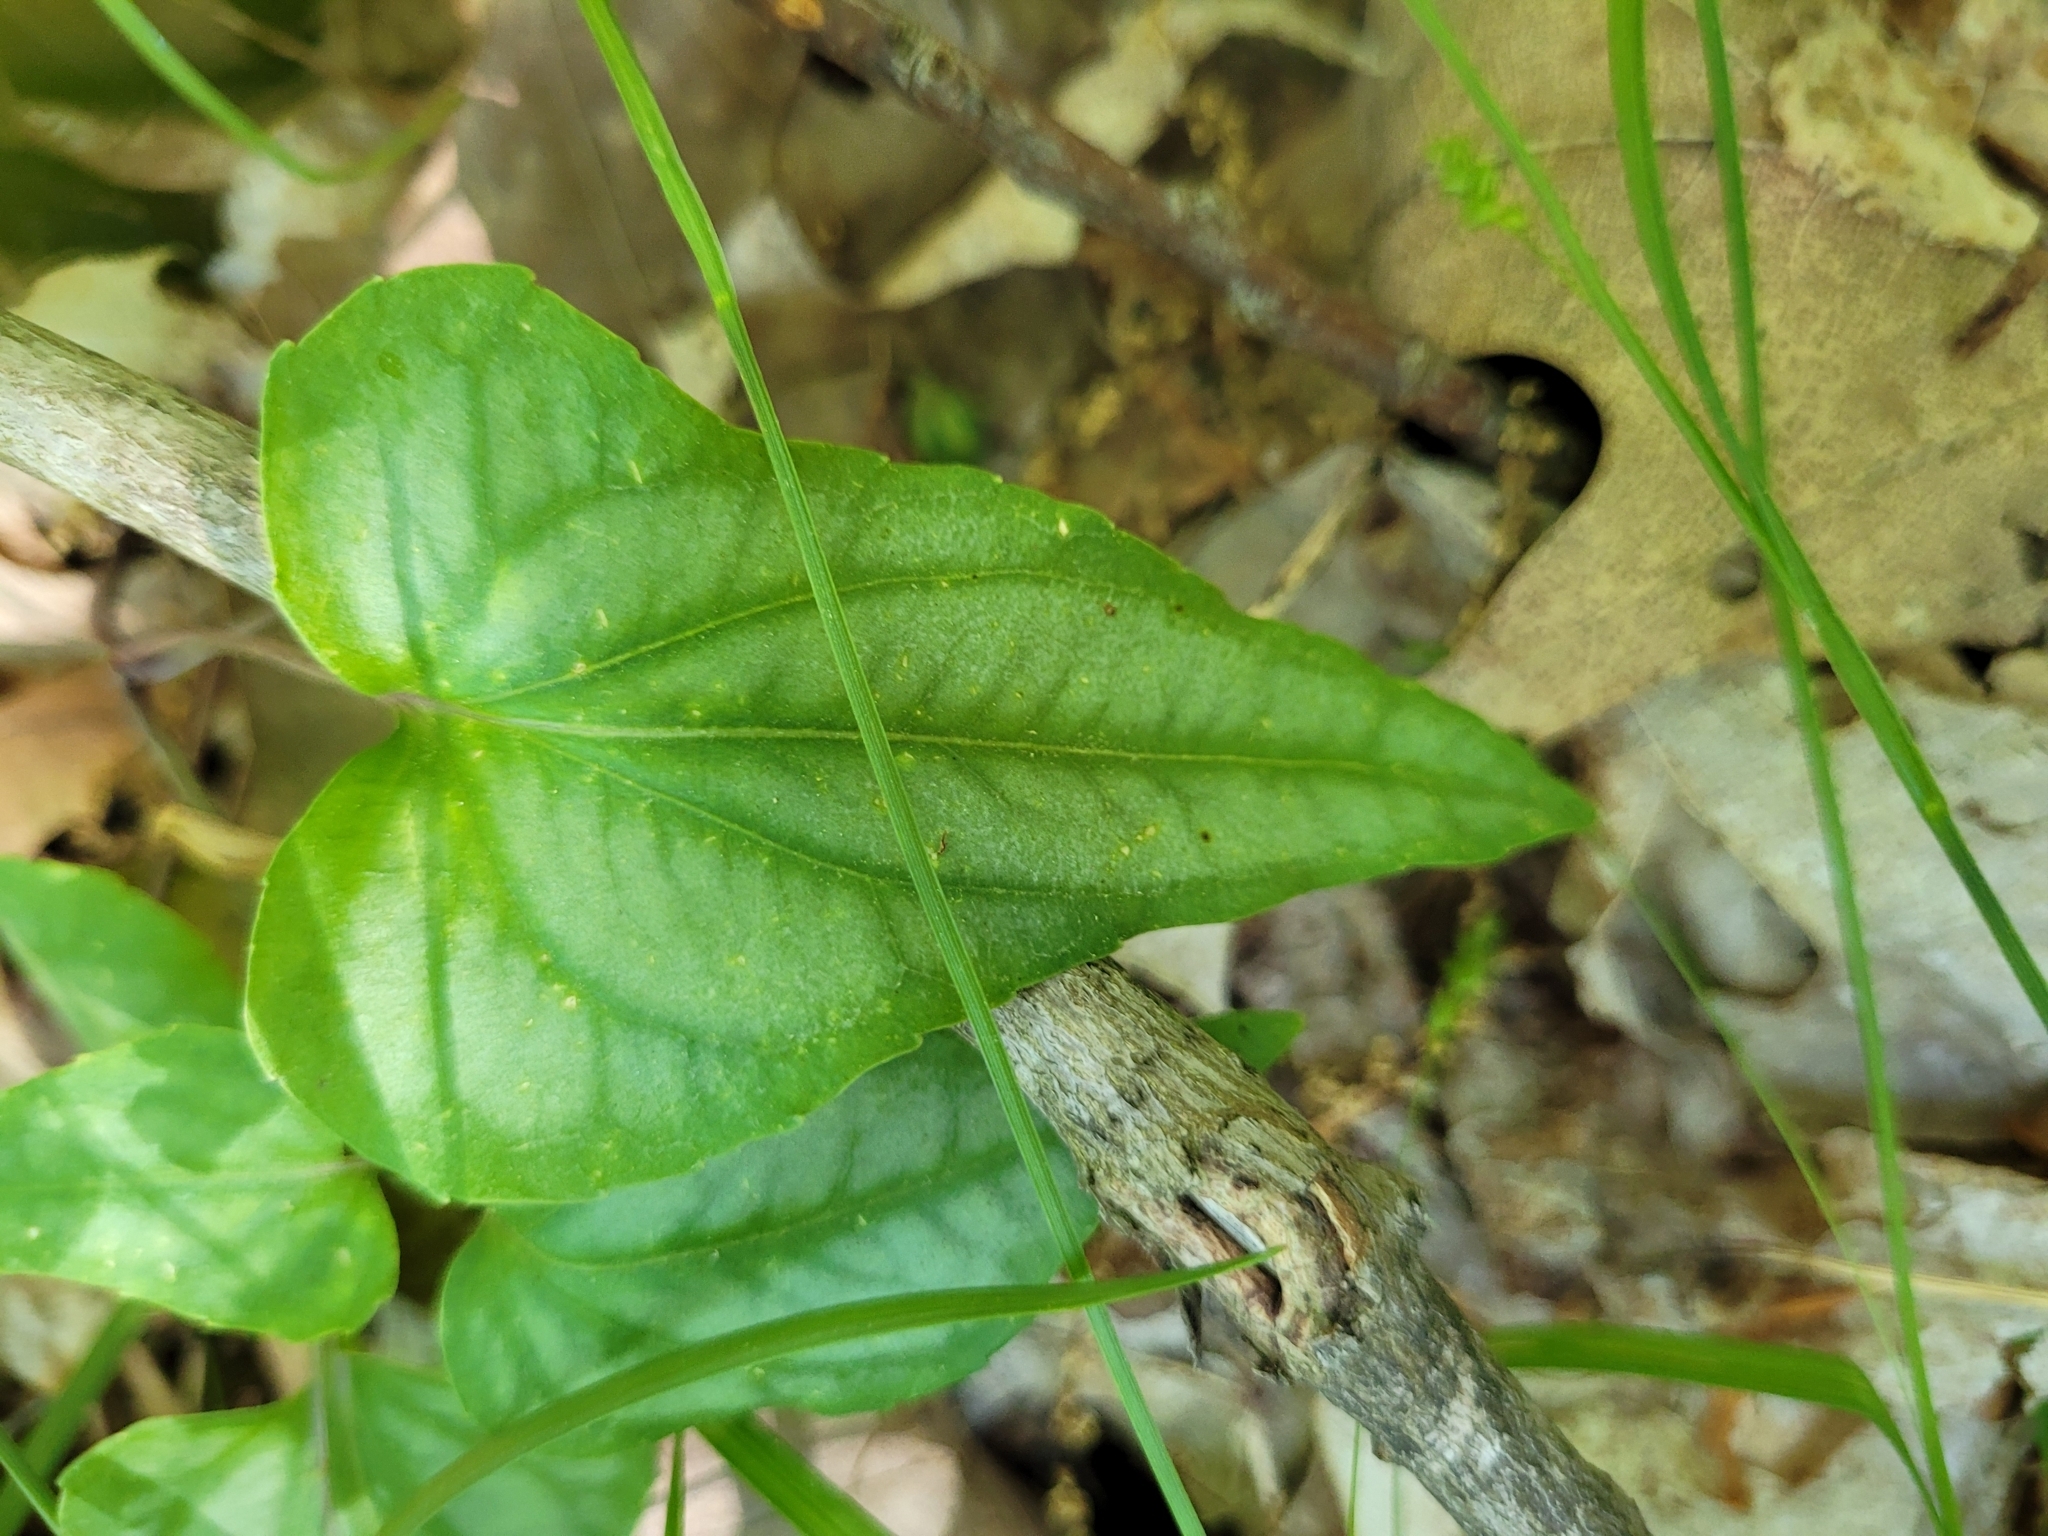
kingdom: Plantae
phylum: Tracheophyta
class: Magnoliopsida
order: Malpighiales
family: Violaceae
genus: Viola
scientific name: Viola hastata
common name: Spear-leaf violet
